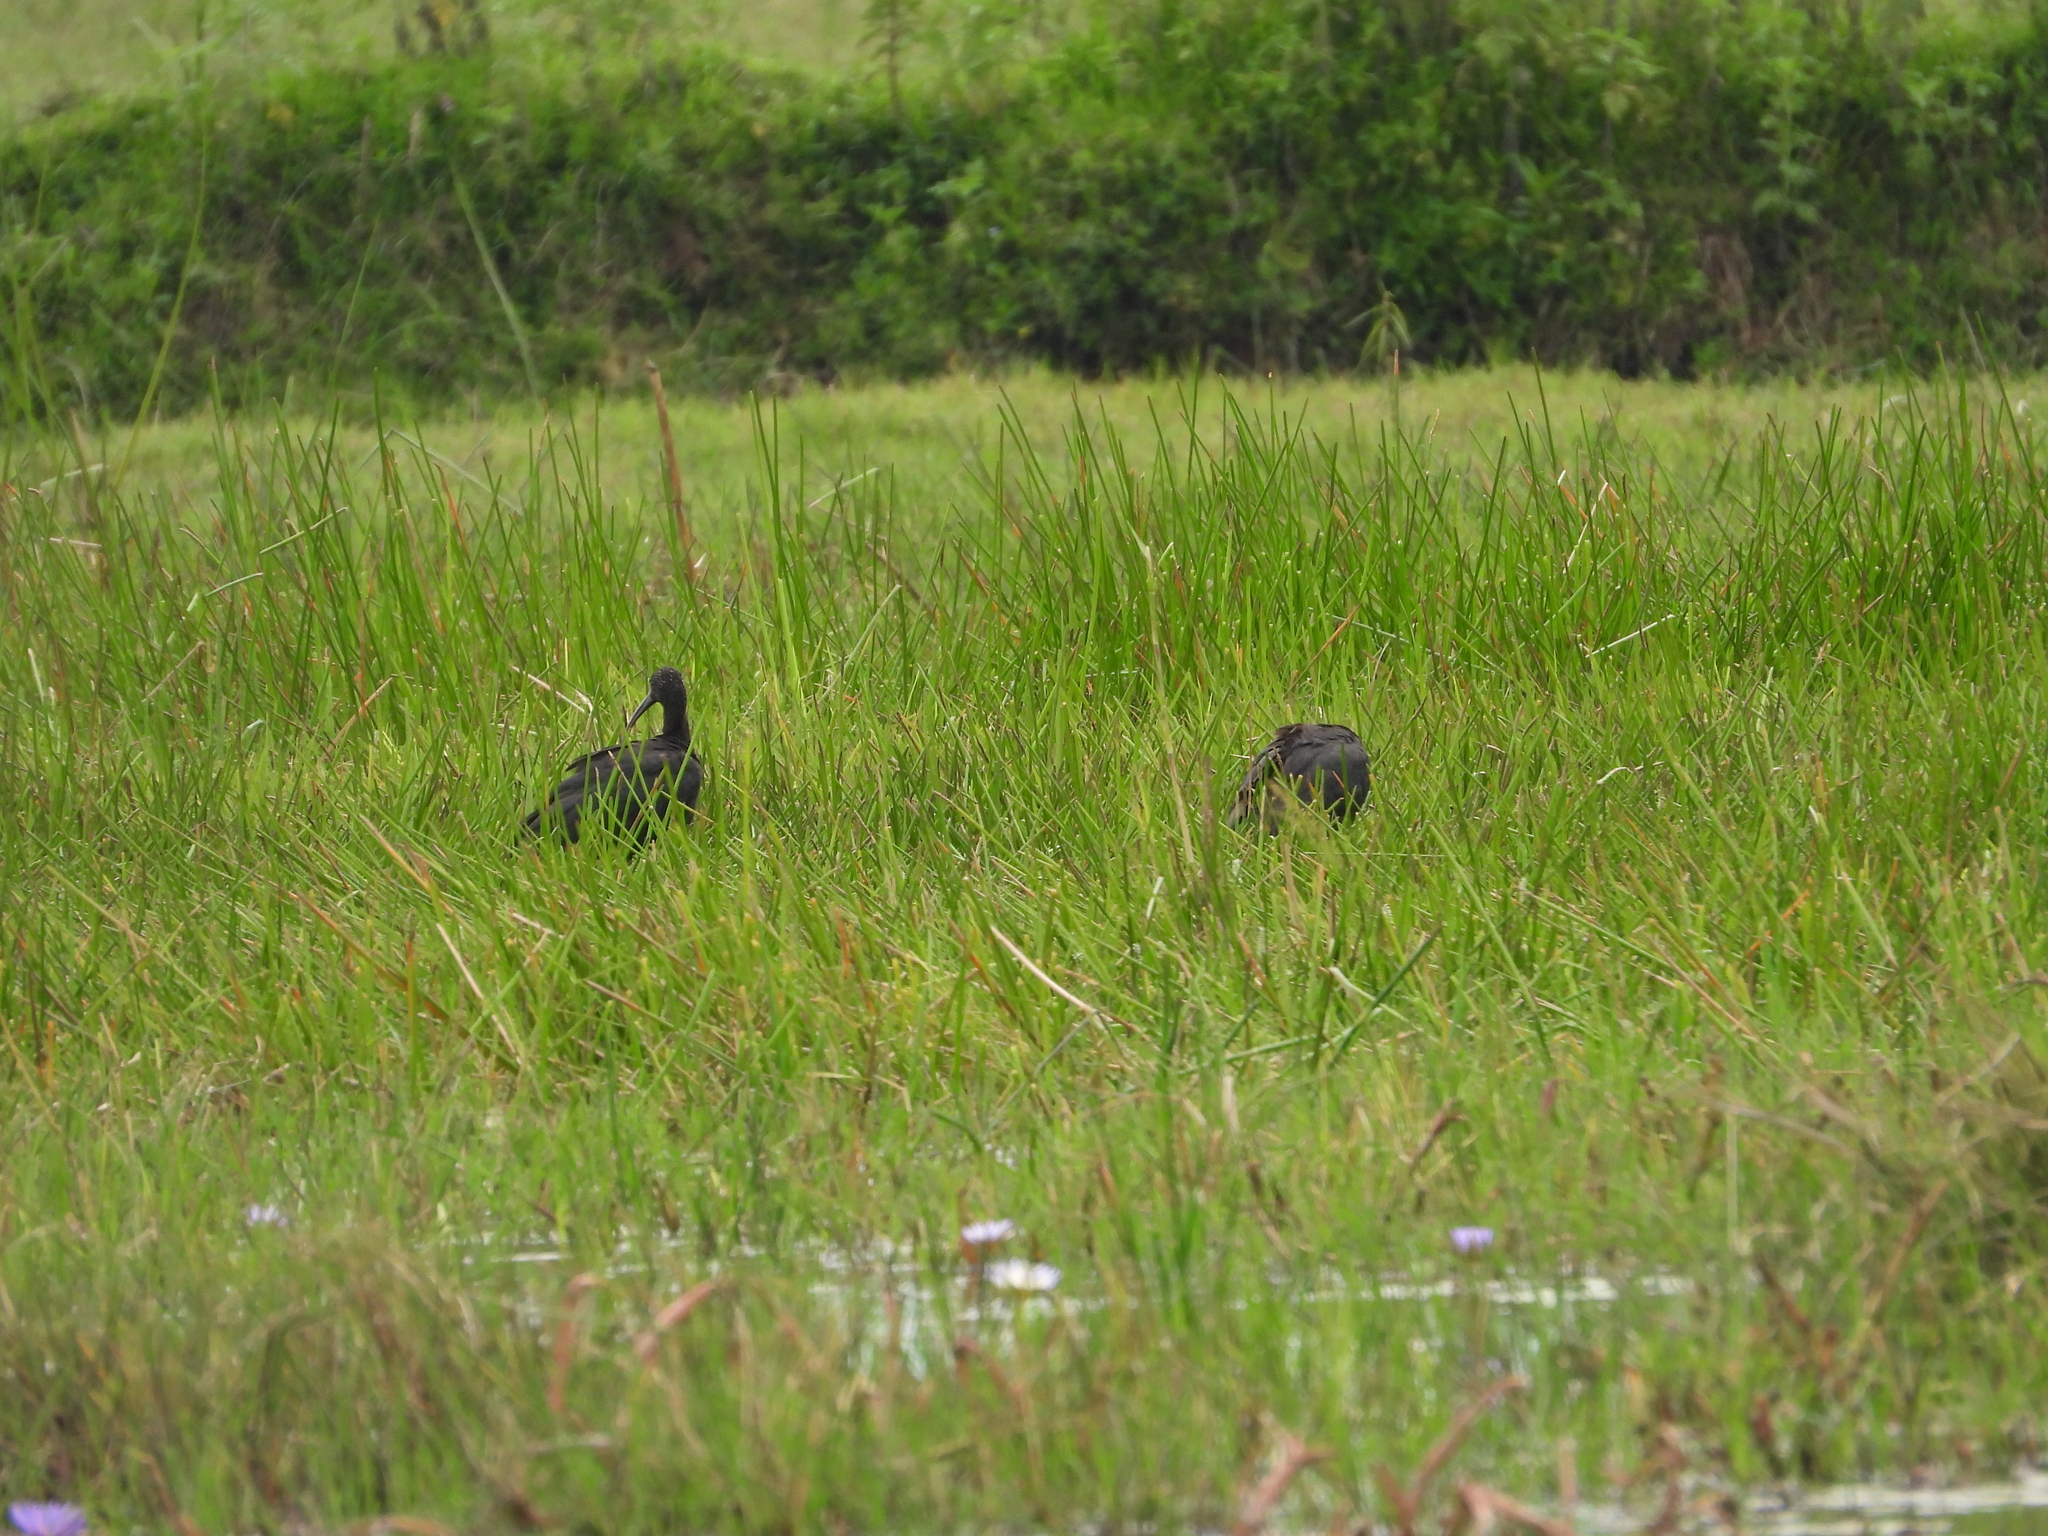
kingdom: Animalia
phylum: Chordata
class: Aves
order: Pelecaniformes
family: Threskiornithidae
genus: Plegadis
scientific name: Plegadis falcinellus
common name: Glossy ibis
